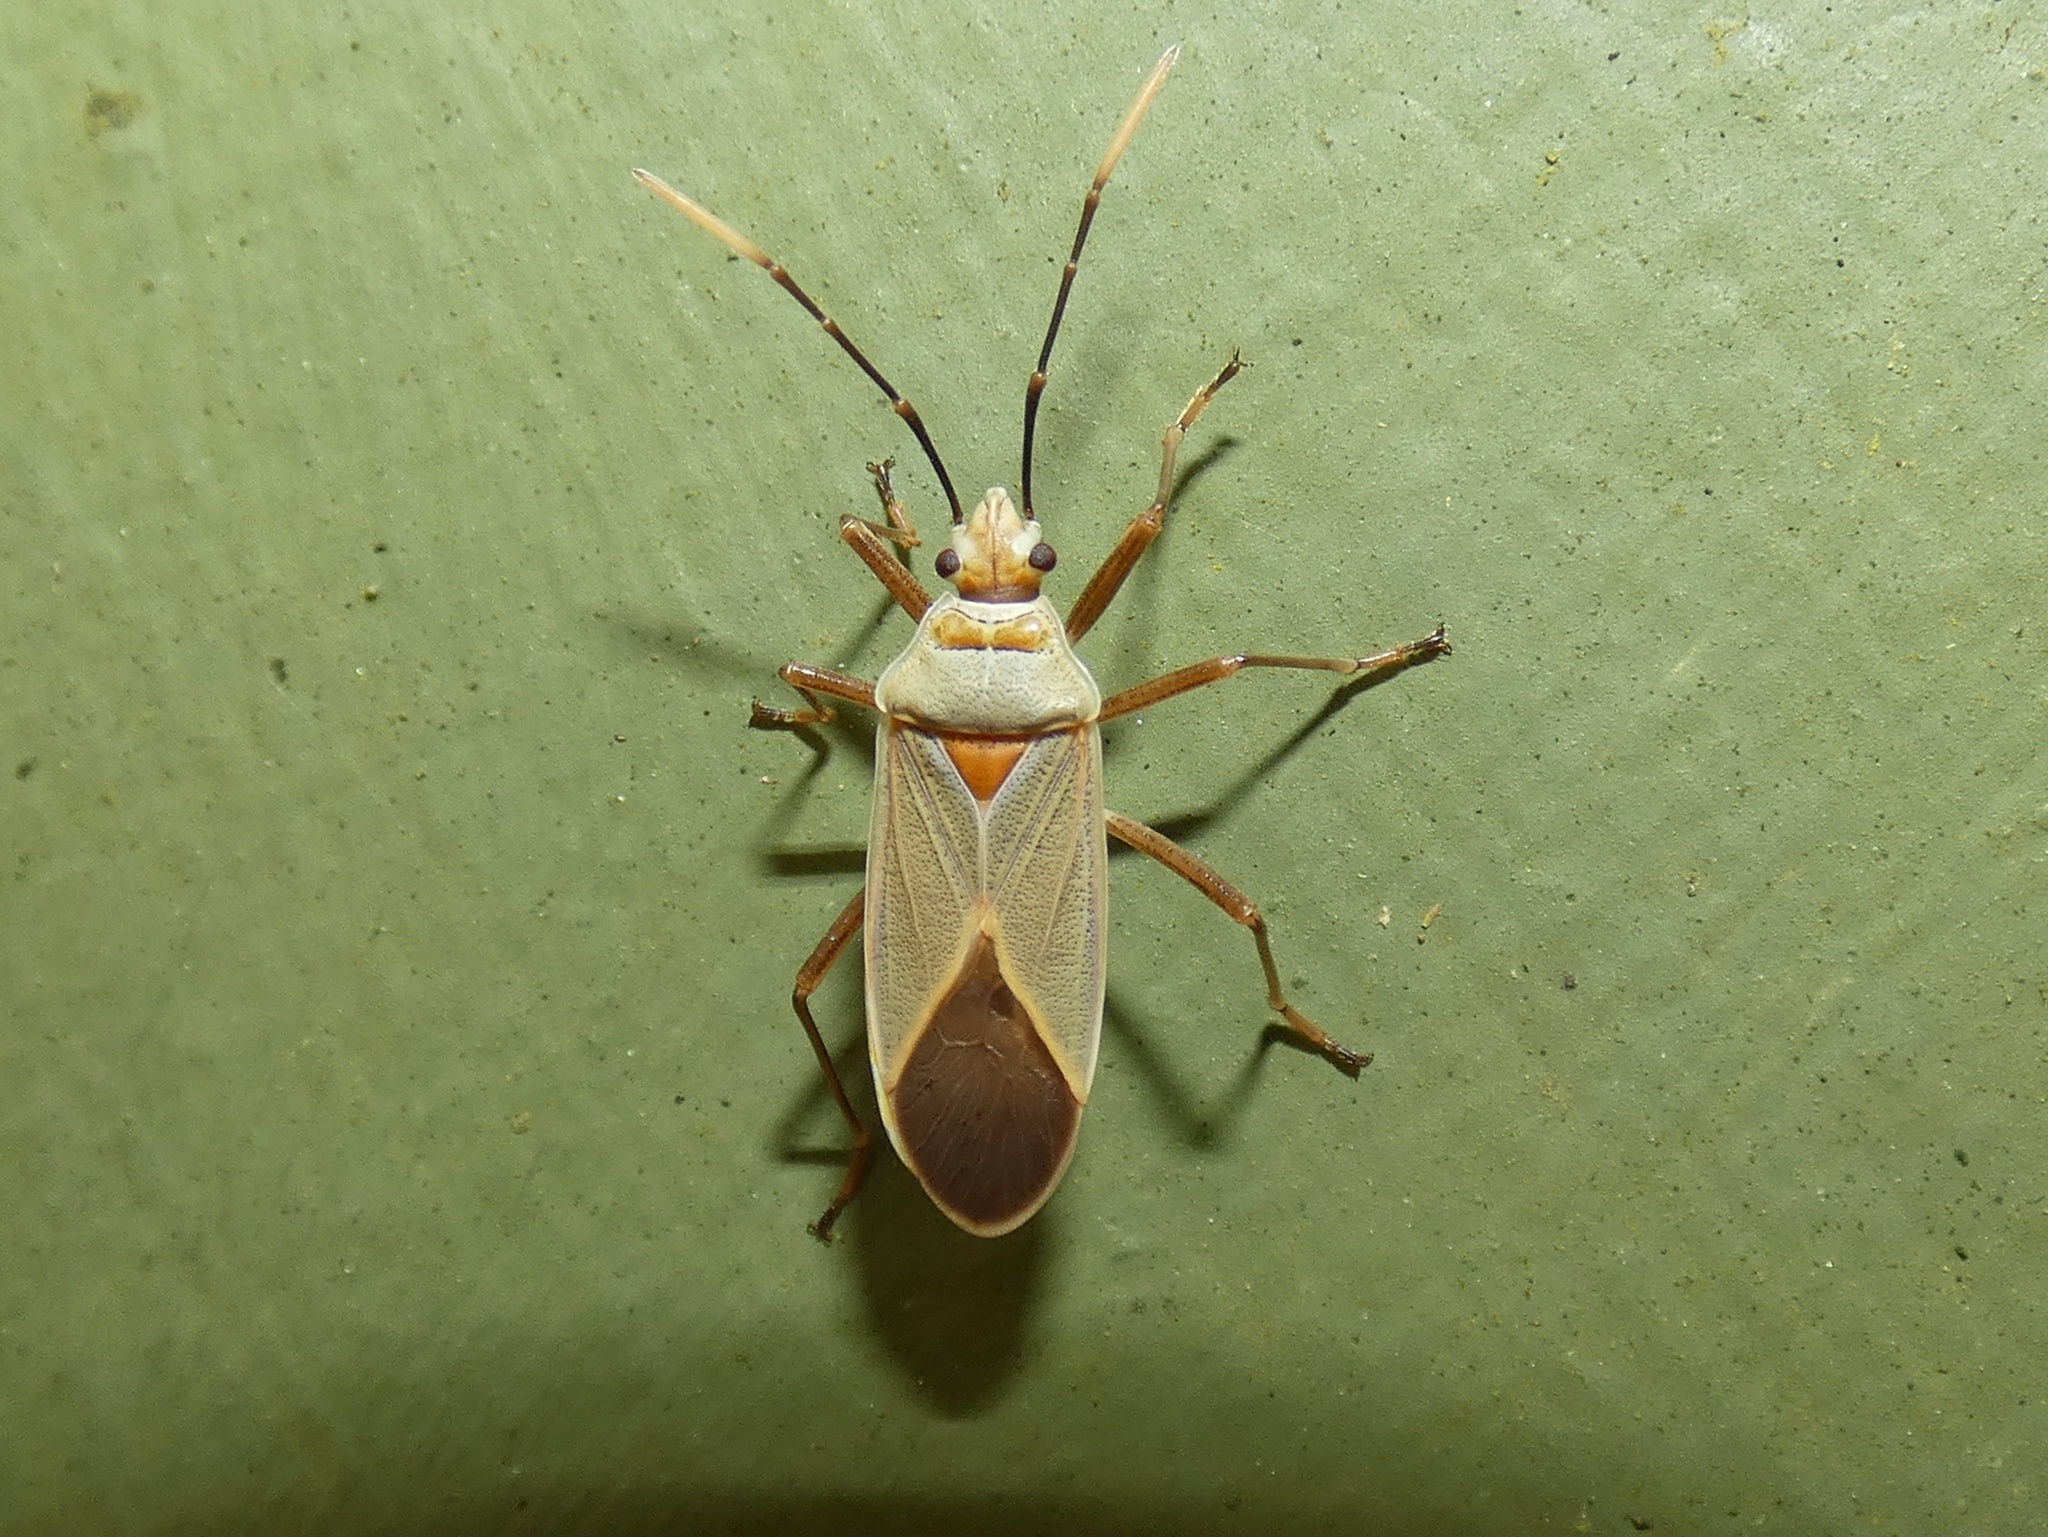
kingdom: Animalia
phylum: Arthropoda
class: Insecta
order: Hemiptera
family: Pyrrhocoridae
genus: Dysdercus
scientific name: Dysdercus argillaceus
